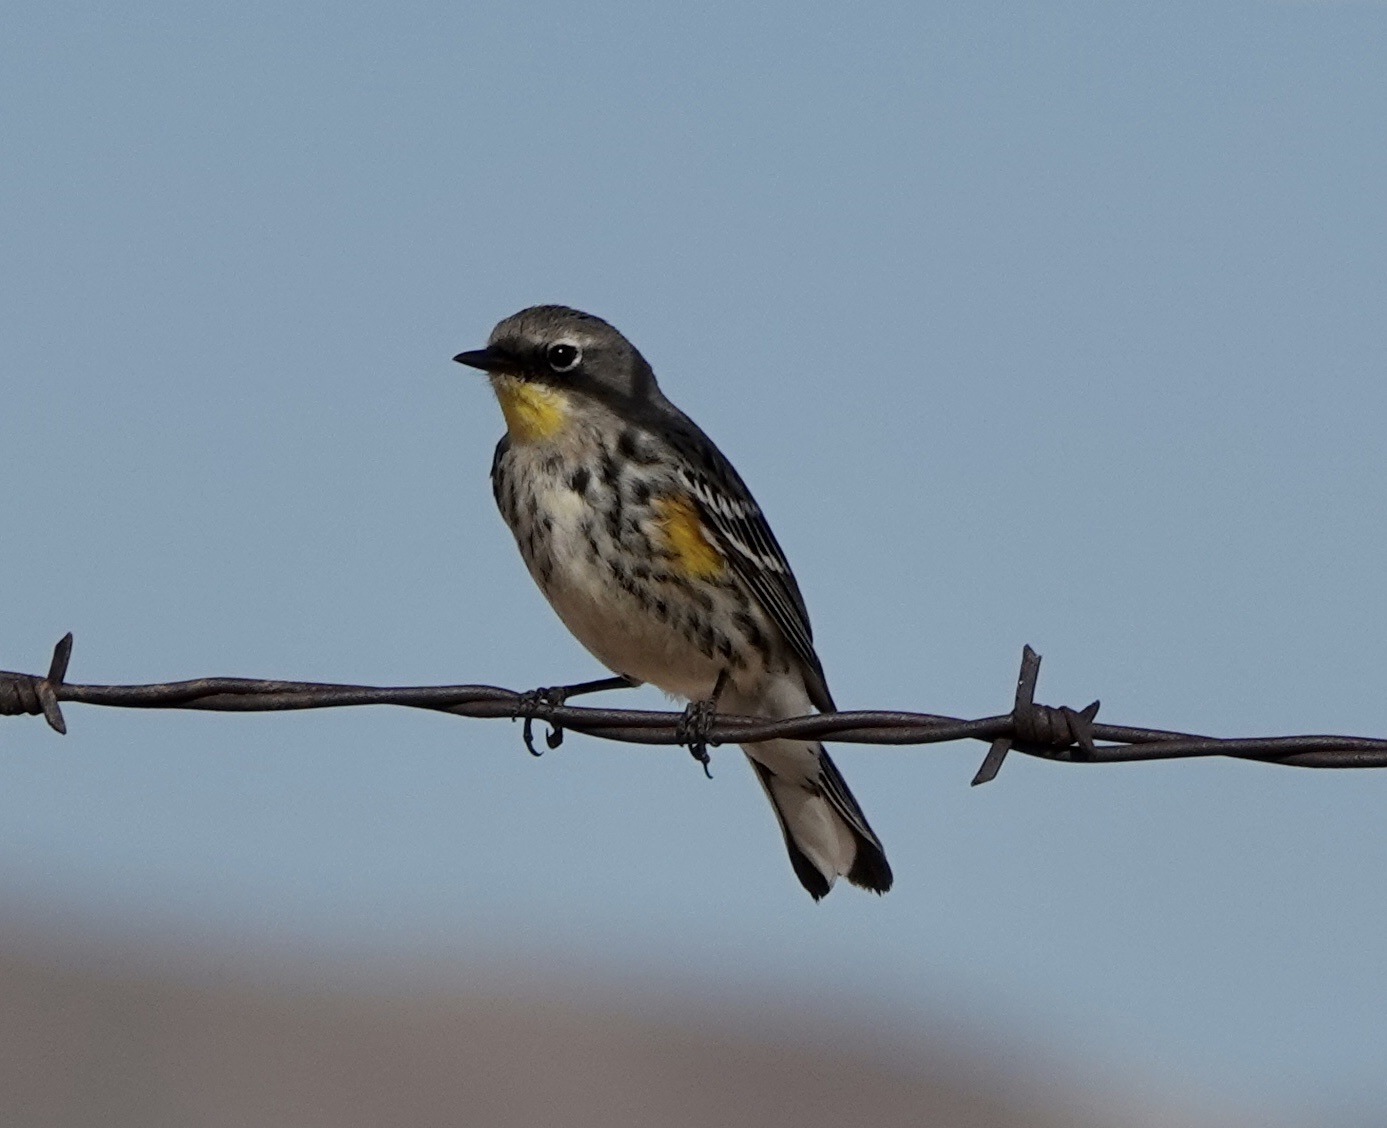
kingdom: Animalia
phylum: Chordata
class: Aves
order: Passeriformes
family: Parulidae
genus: Setophaga
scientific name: Setophaga auduboni
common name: Audubon's warbler
